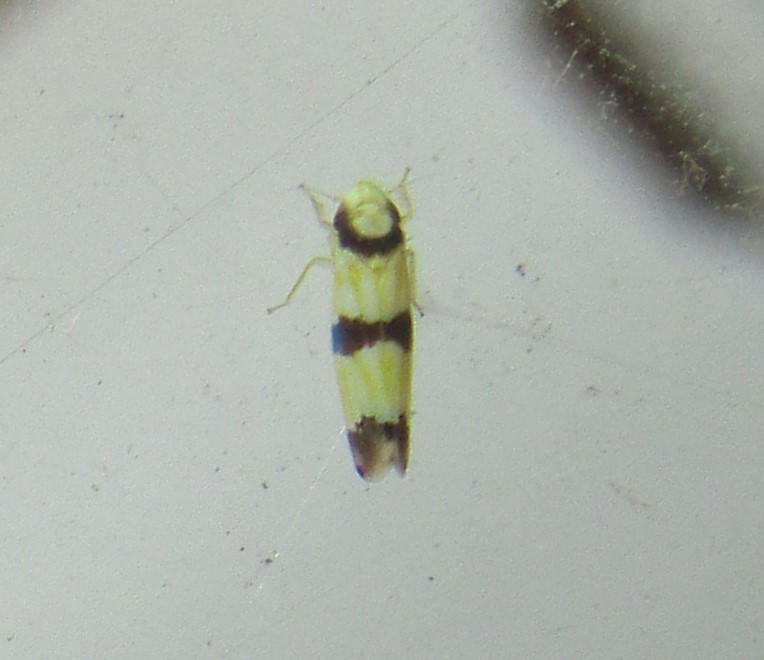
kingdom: Animalia
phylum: Arthropoda
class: Insecta
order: Hemiptera
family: Cicadellidae
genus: Erythroneura
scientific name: Erythroneura calycula
